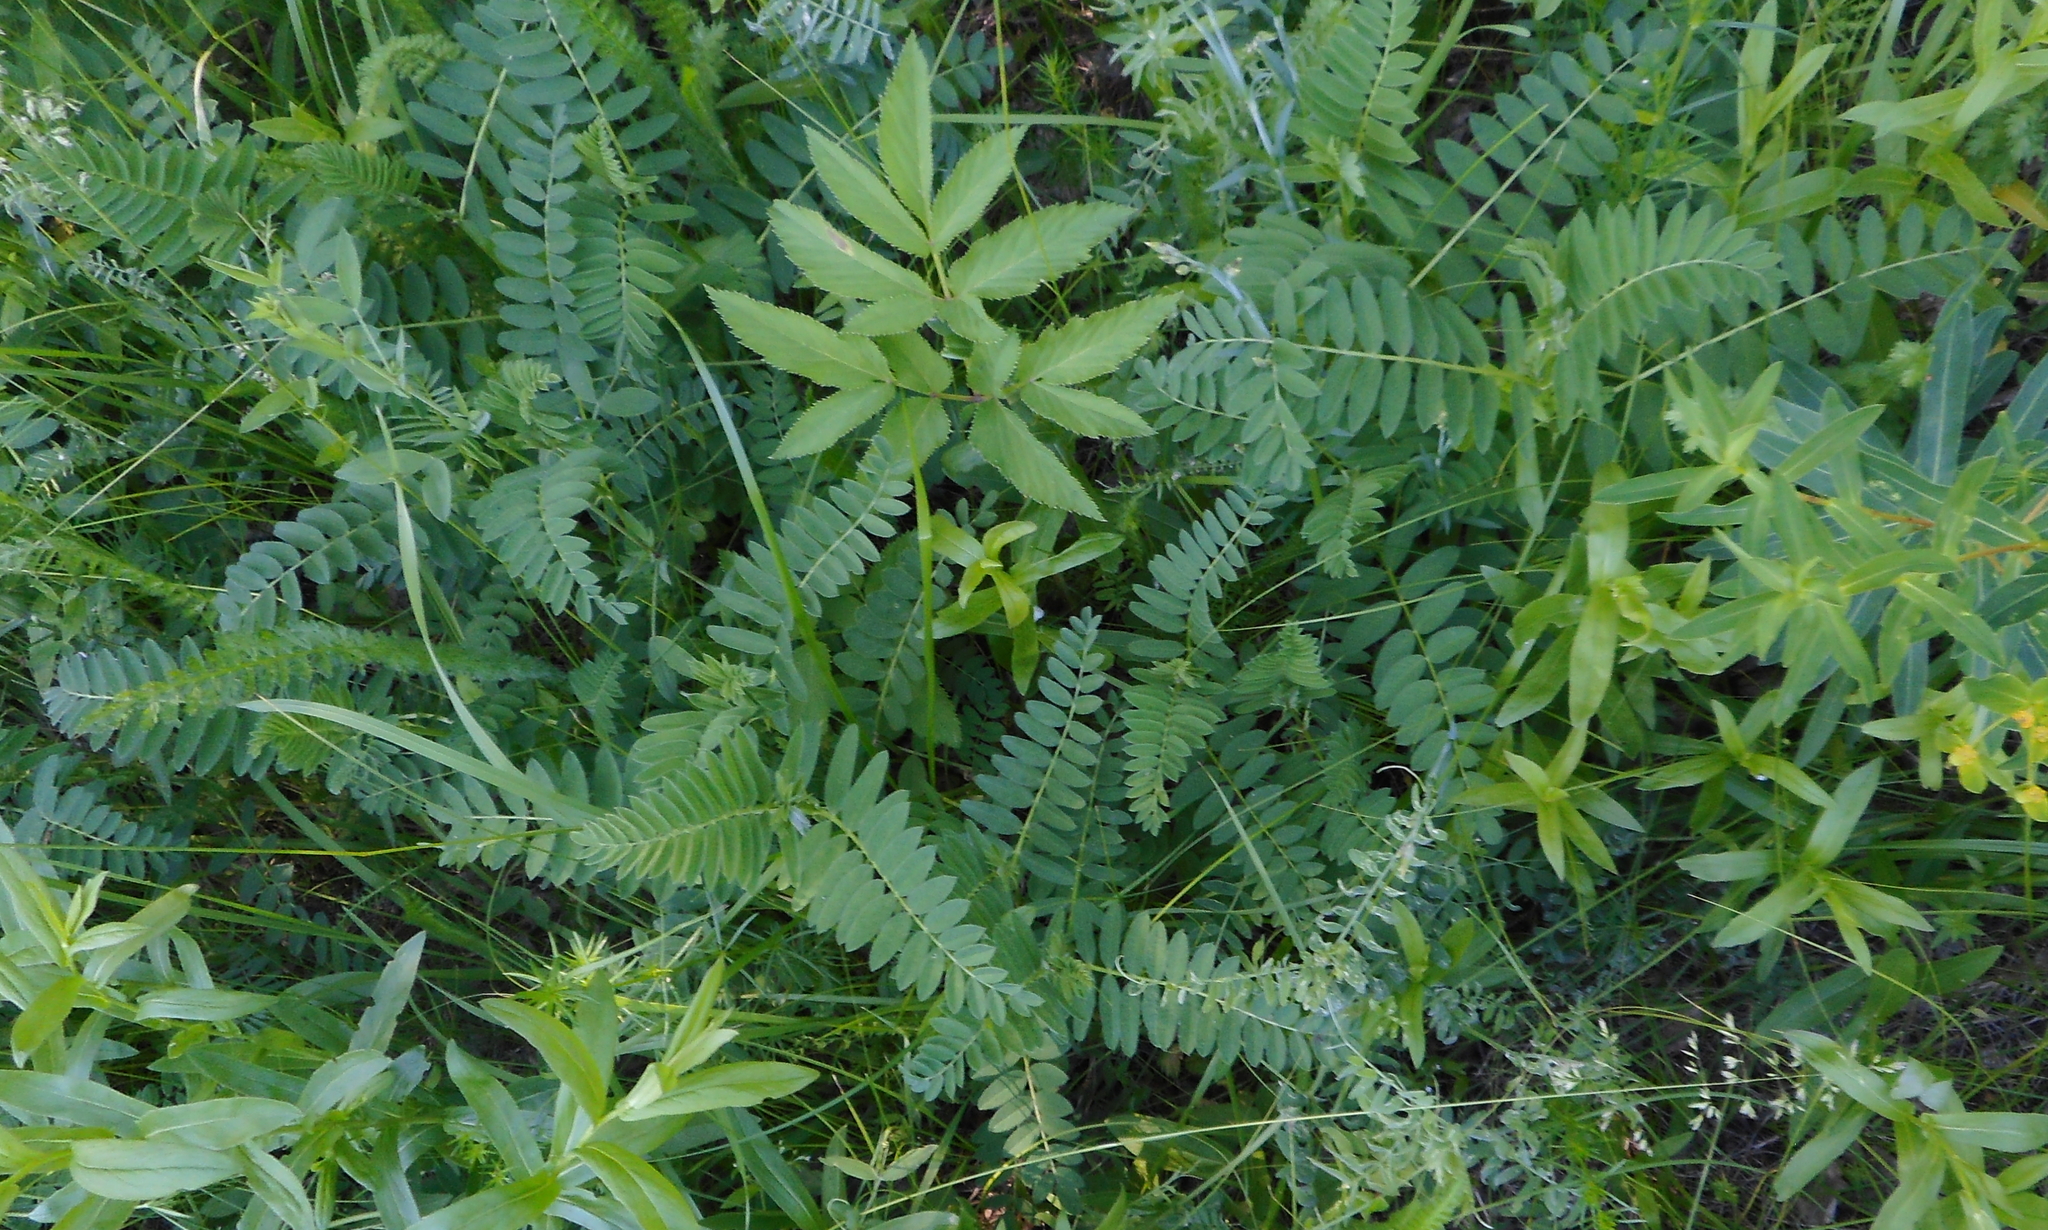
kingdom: Plantae
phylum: Tracheophyta
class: Magnoliopsida
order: Fabales
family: Fabaceae
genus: Astragalus
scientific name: Astragalus cicer
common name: Chick-pea milk-vetch
